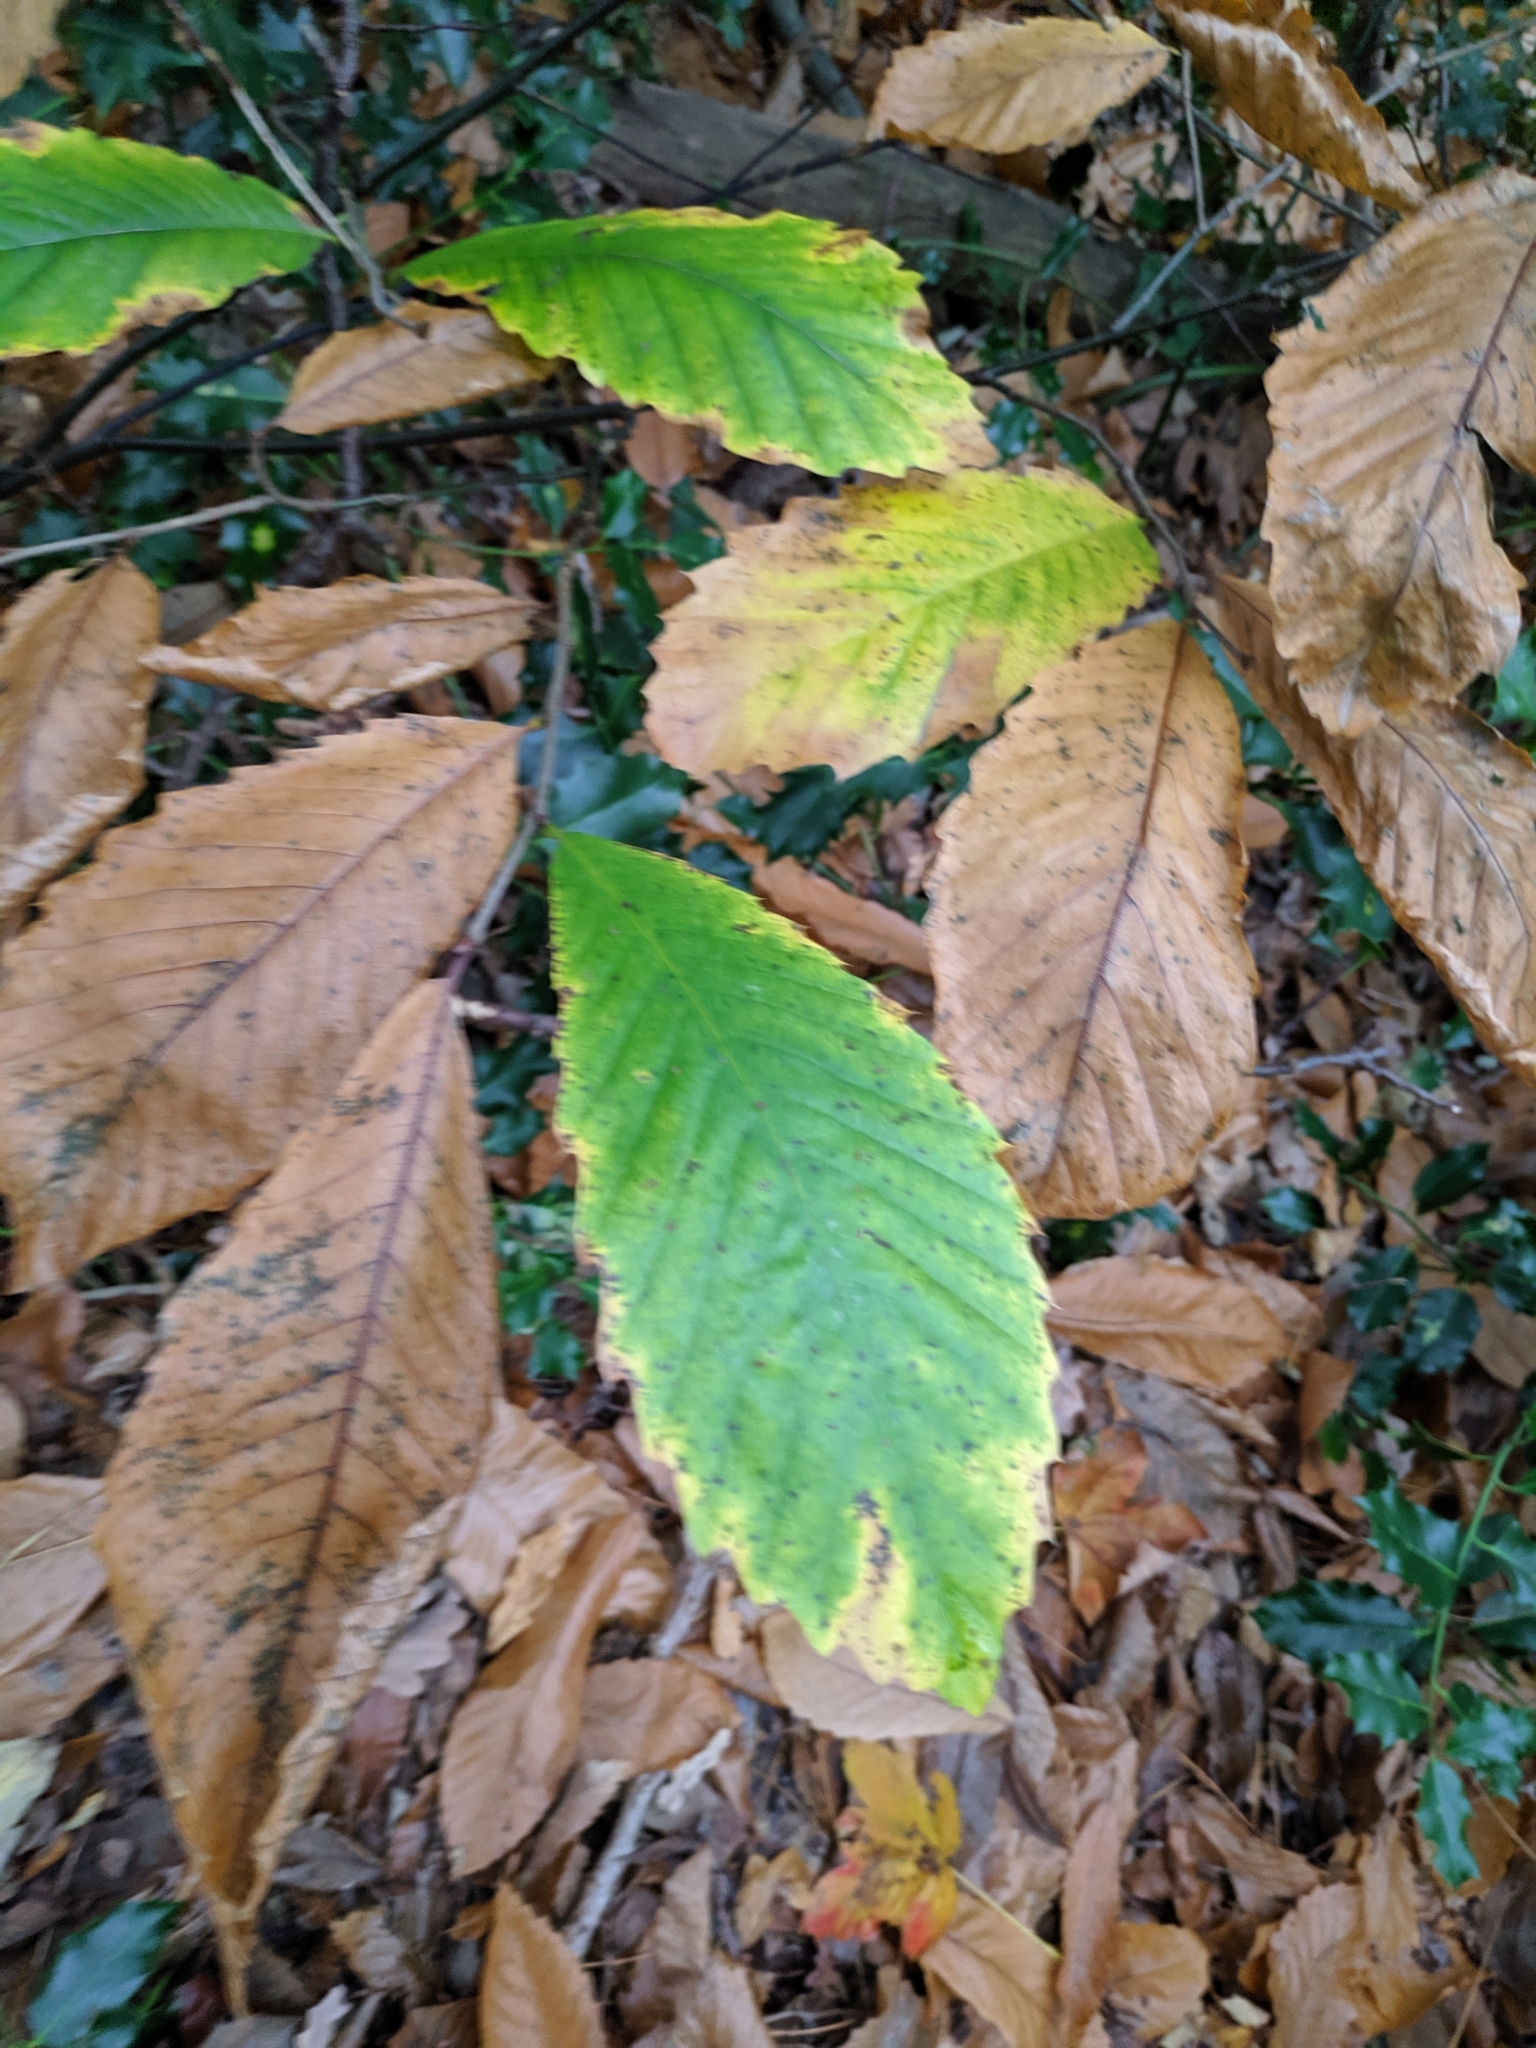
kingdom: Plantae
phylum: Tracheophyta
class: Magnoliopsida
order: Fagales
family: Fagaceae
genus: Castanea
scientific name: Castanea sativa
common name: Sweet chestnut
